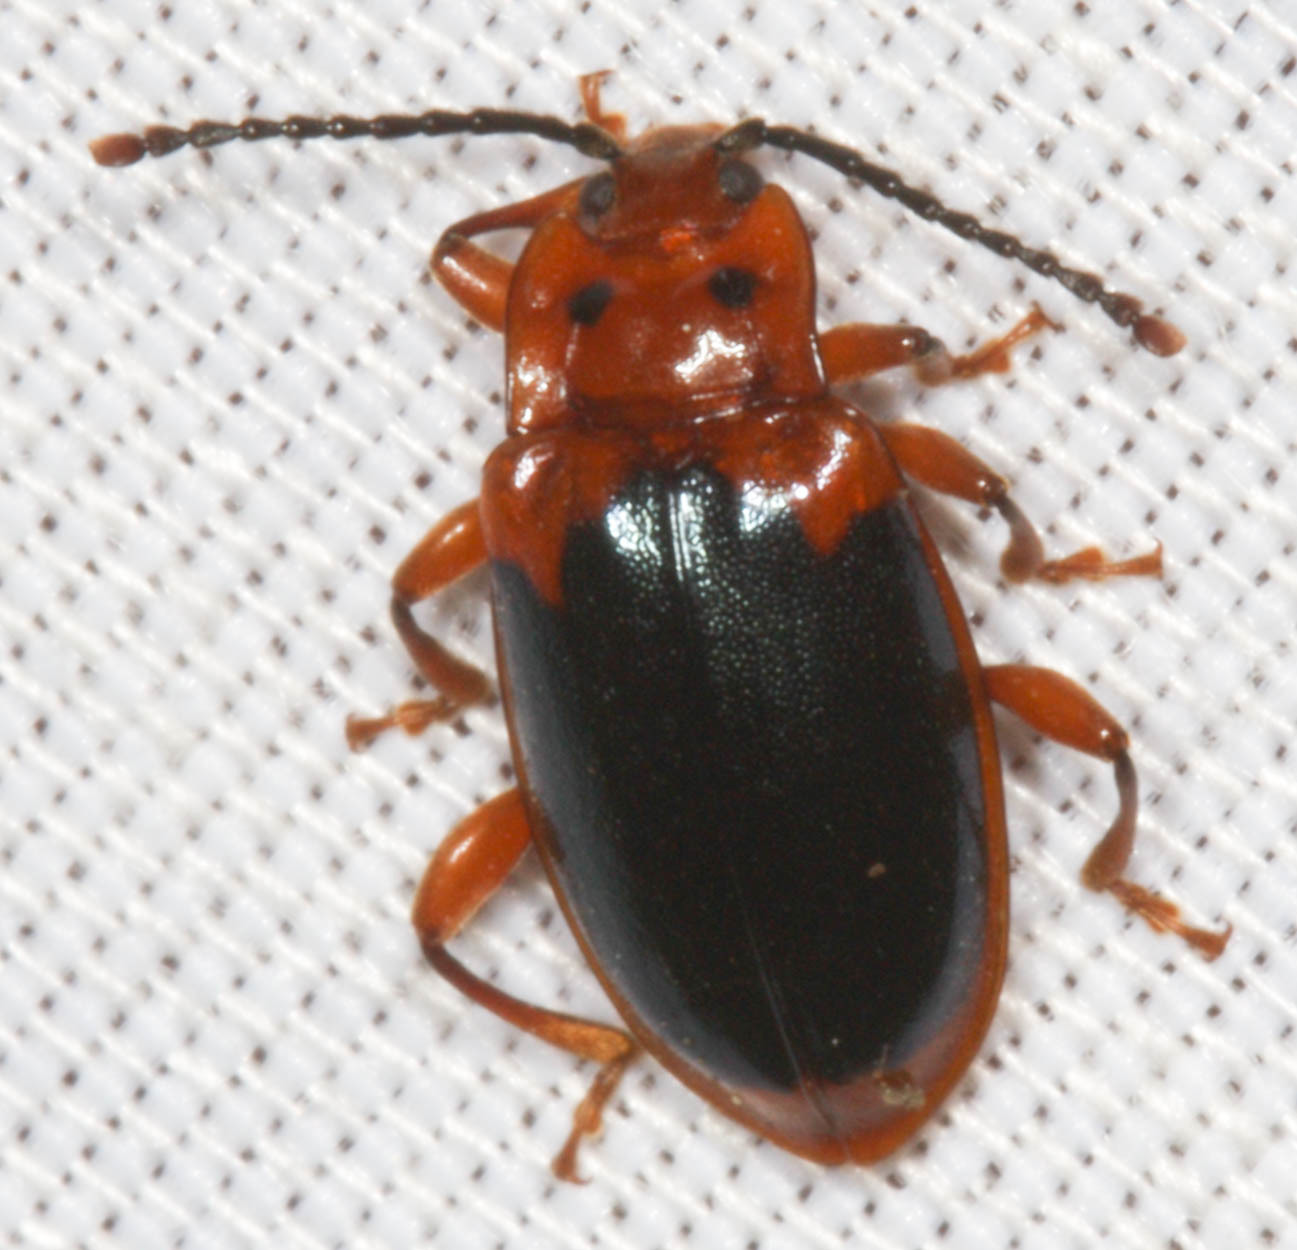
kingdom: Animalia
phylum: Arthropoda
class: Insecta
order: Coleoptera
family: Endomychidae
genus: Aphorista
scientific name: Aphorista laeta
